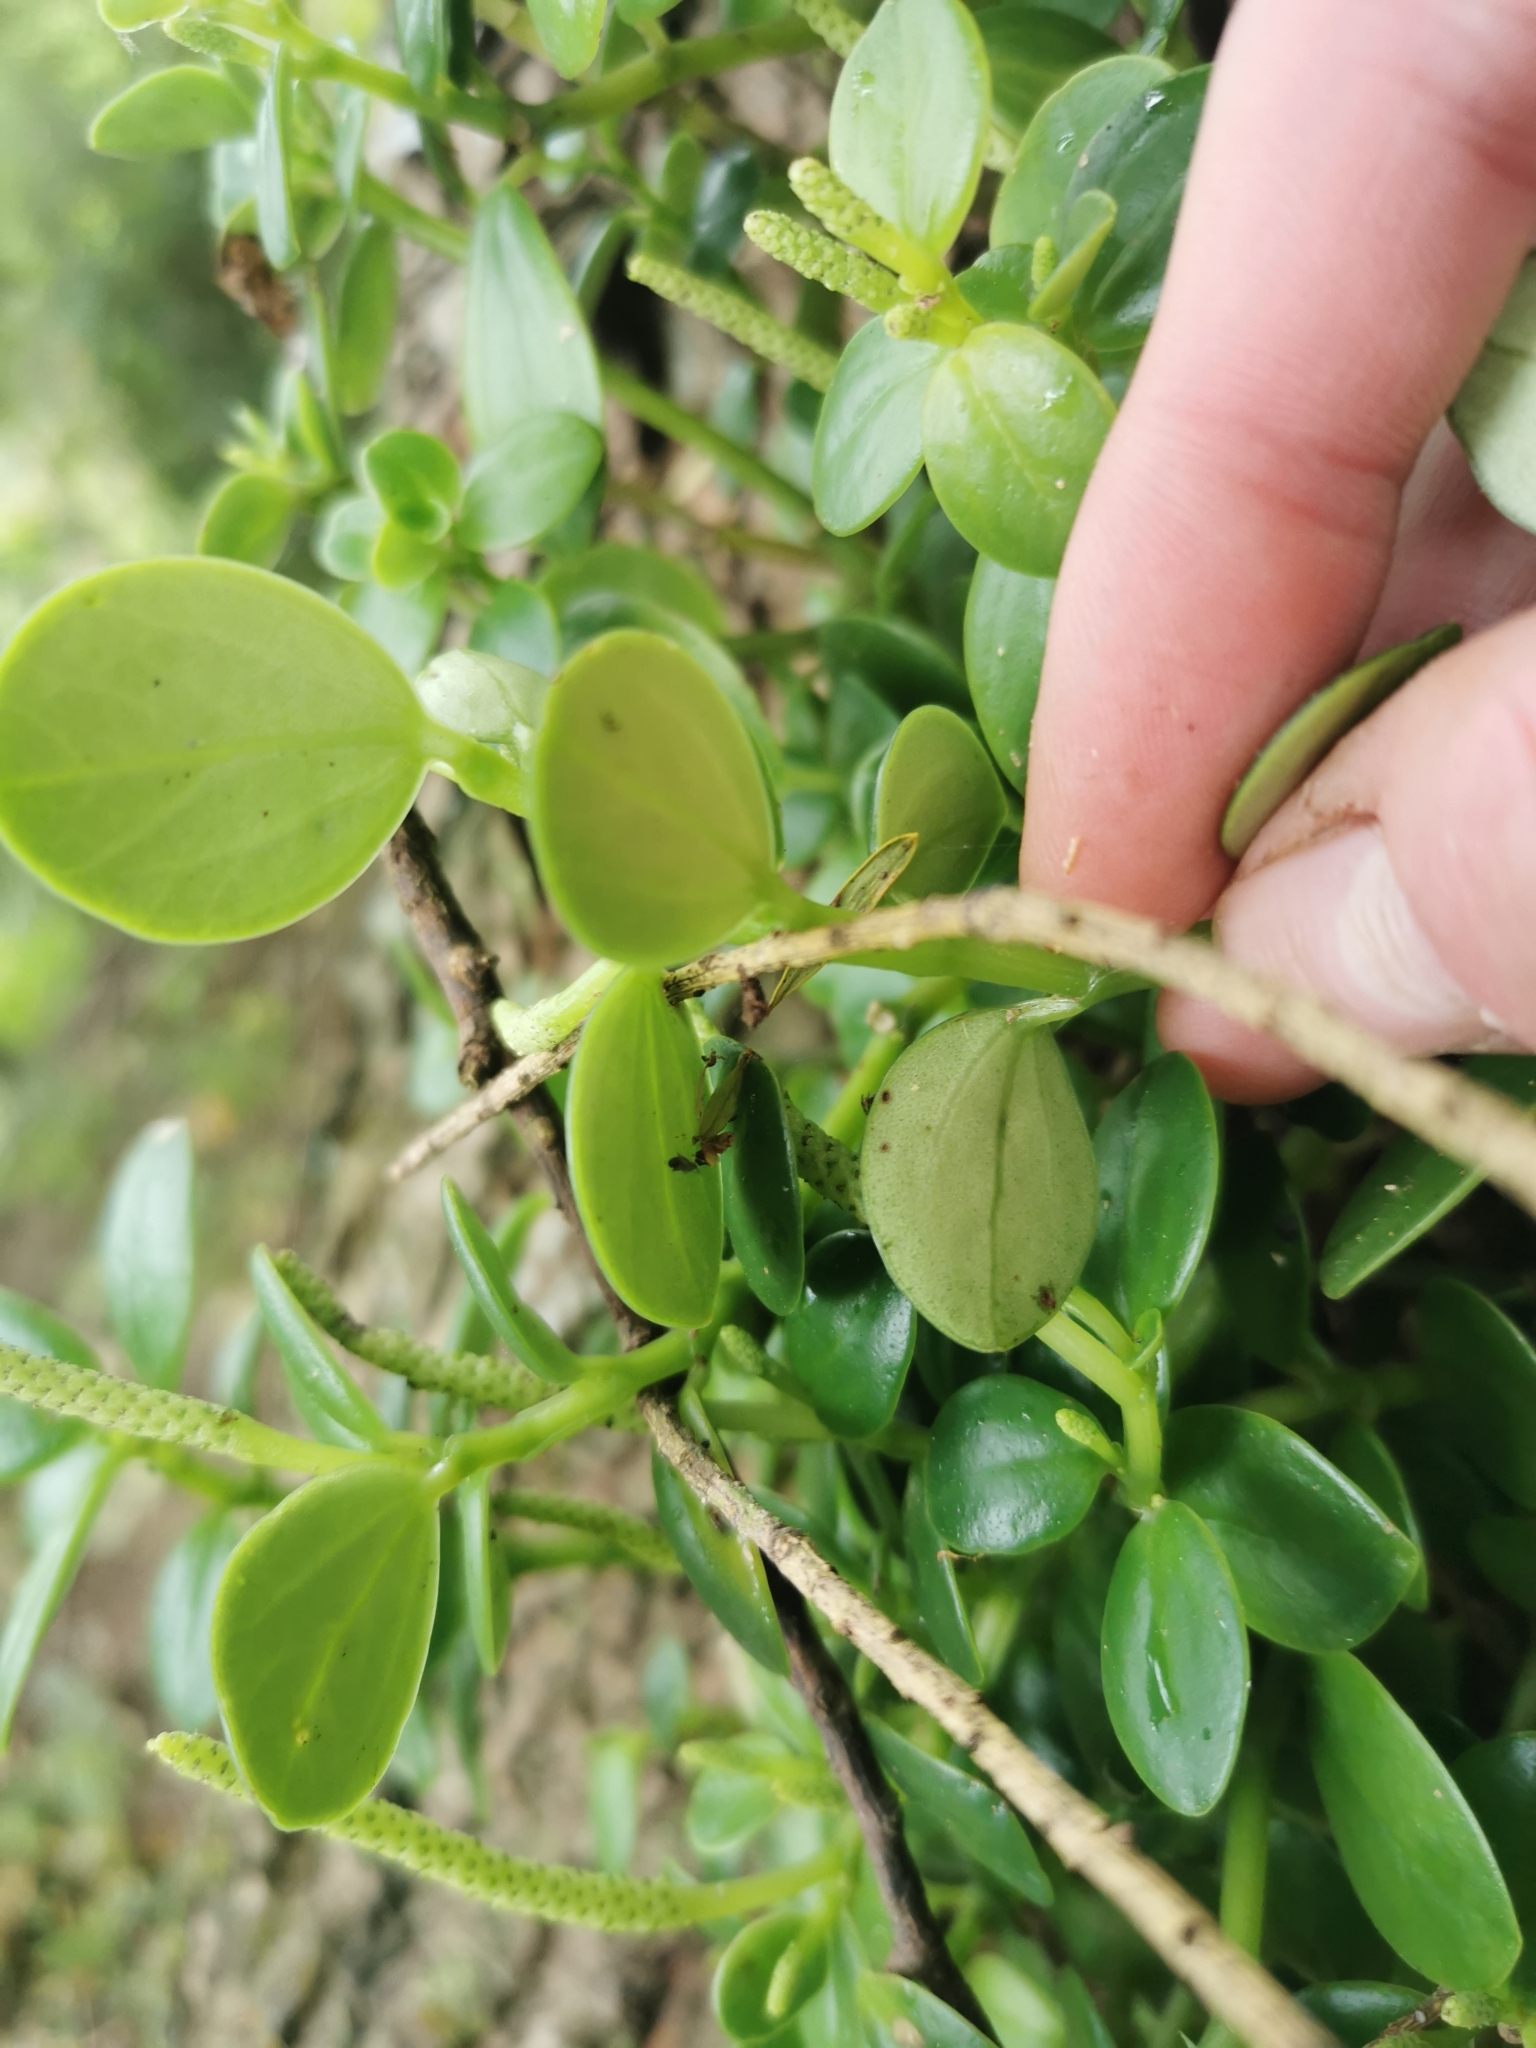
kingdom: Plantae
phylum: Tracheophyta
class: Magnoliopsida
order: Piperales
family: Piperaceae
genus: Peperomia
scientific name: Peperomia urvilleana
